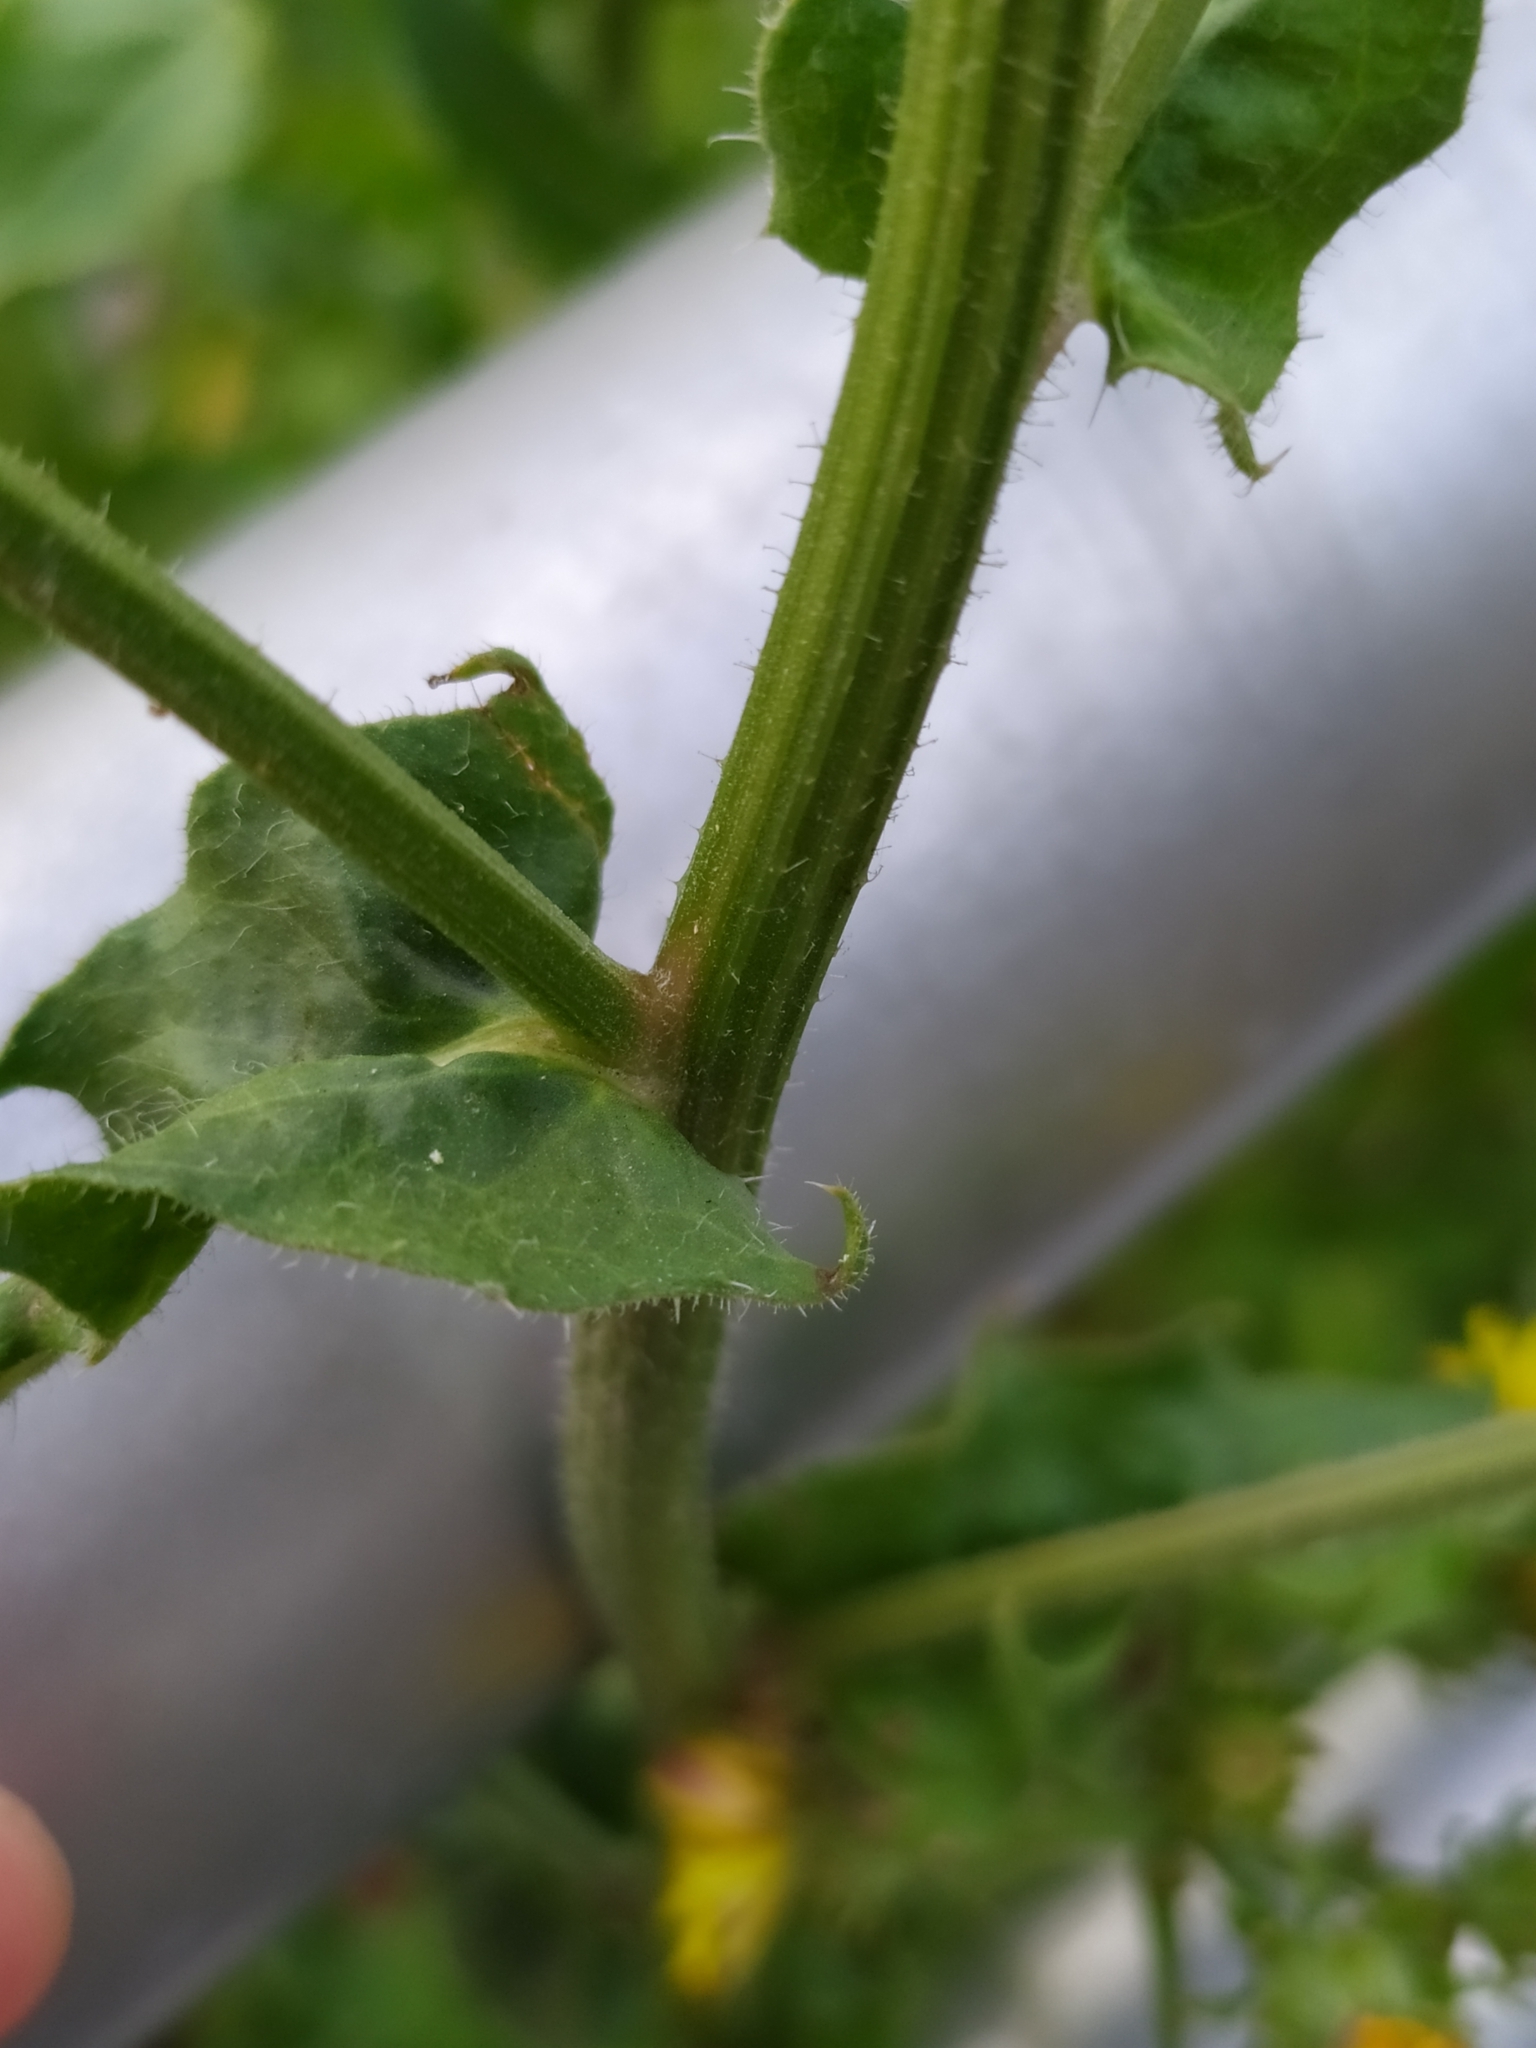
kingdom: Plantae
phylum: Tracheophyta
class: Magnoliopsida
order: Asterales
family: Asteraceae
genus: Picris
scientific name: Picris hieracioides
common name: Hawkweed oxtongue
